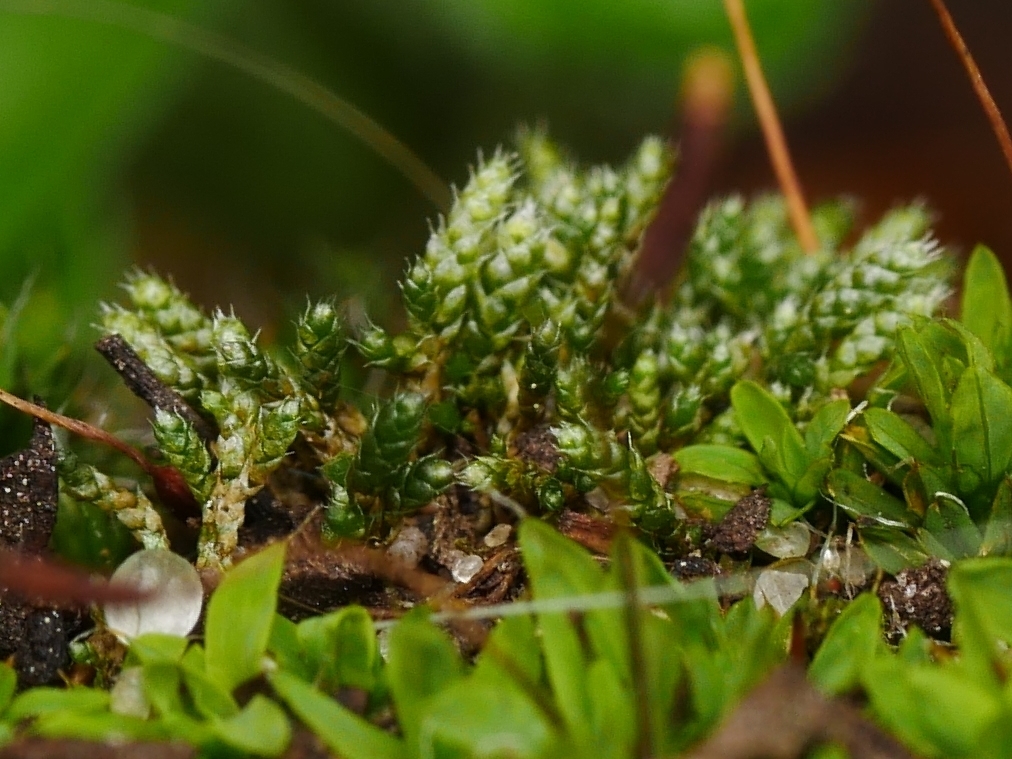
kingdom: Plantae
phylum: Bryophyta
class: Bryopsida
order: Bryales
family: Bryaceae
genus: Bryum
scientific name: Bryum argenteum
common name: Silver-moss
